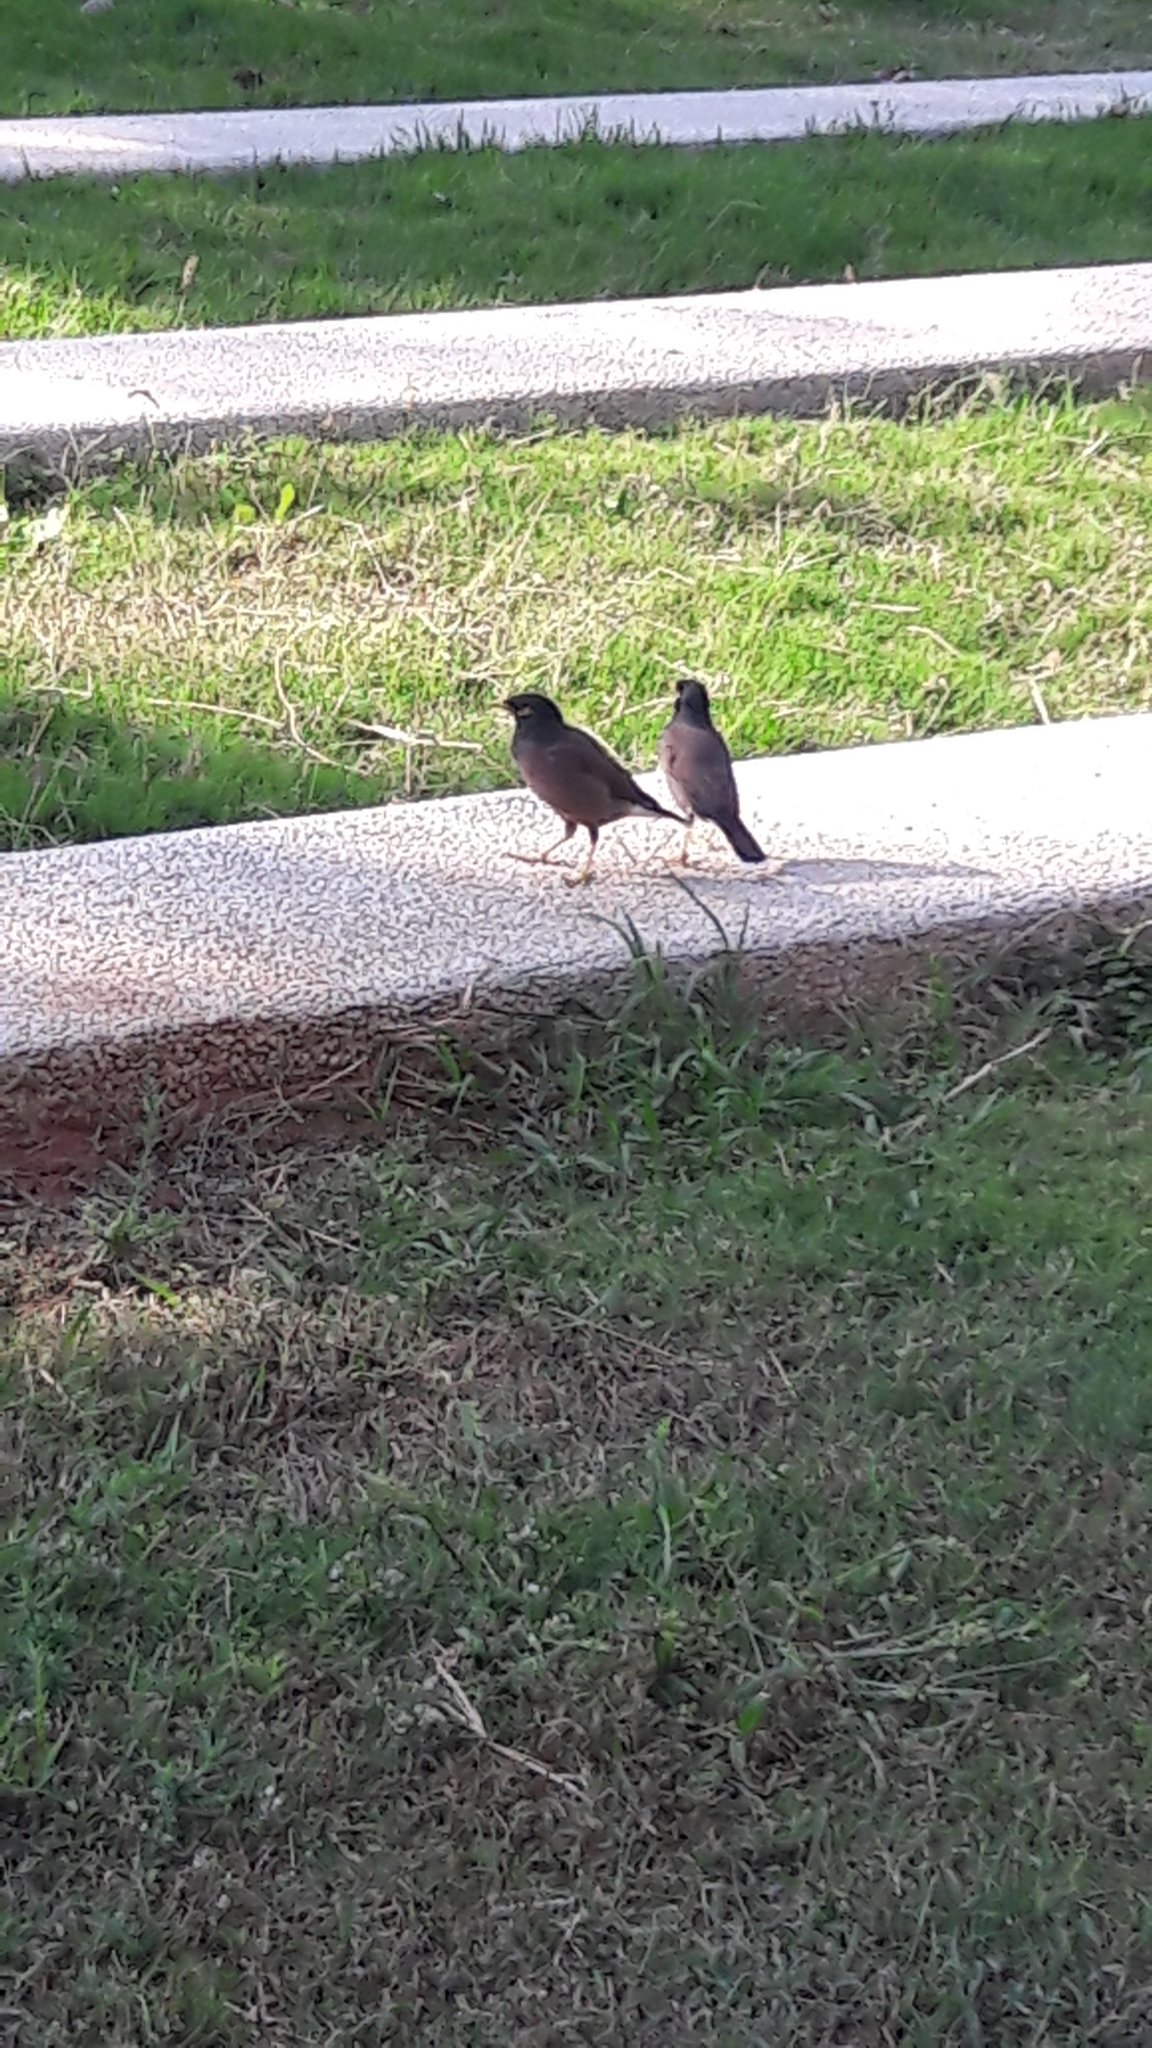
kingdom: Animalia
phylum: Chordata
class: Aves
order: Passeriformes
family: Sturnidae
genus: Acridotheres
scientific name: Acridotheres tristis
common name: Common myna
